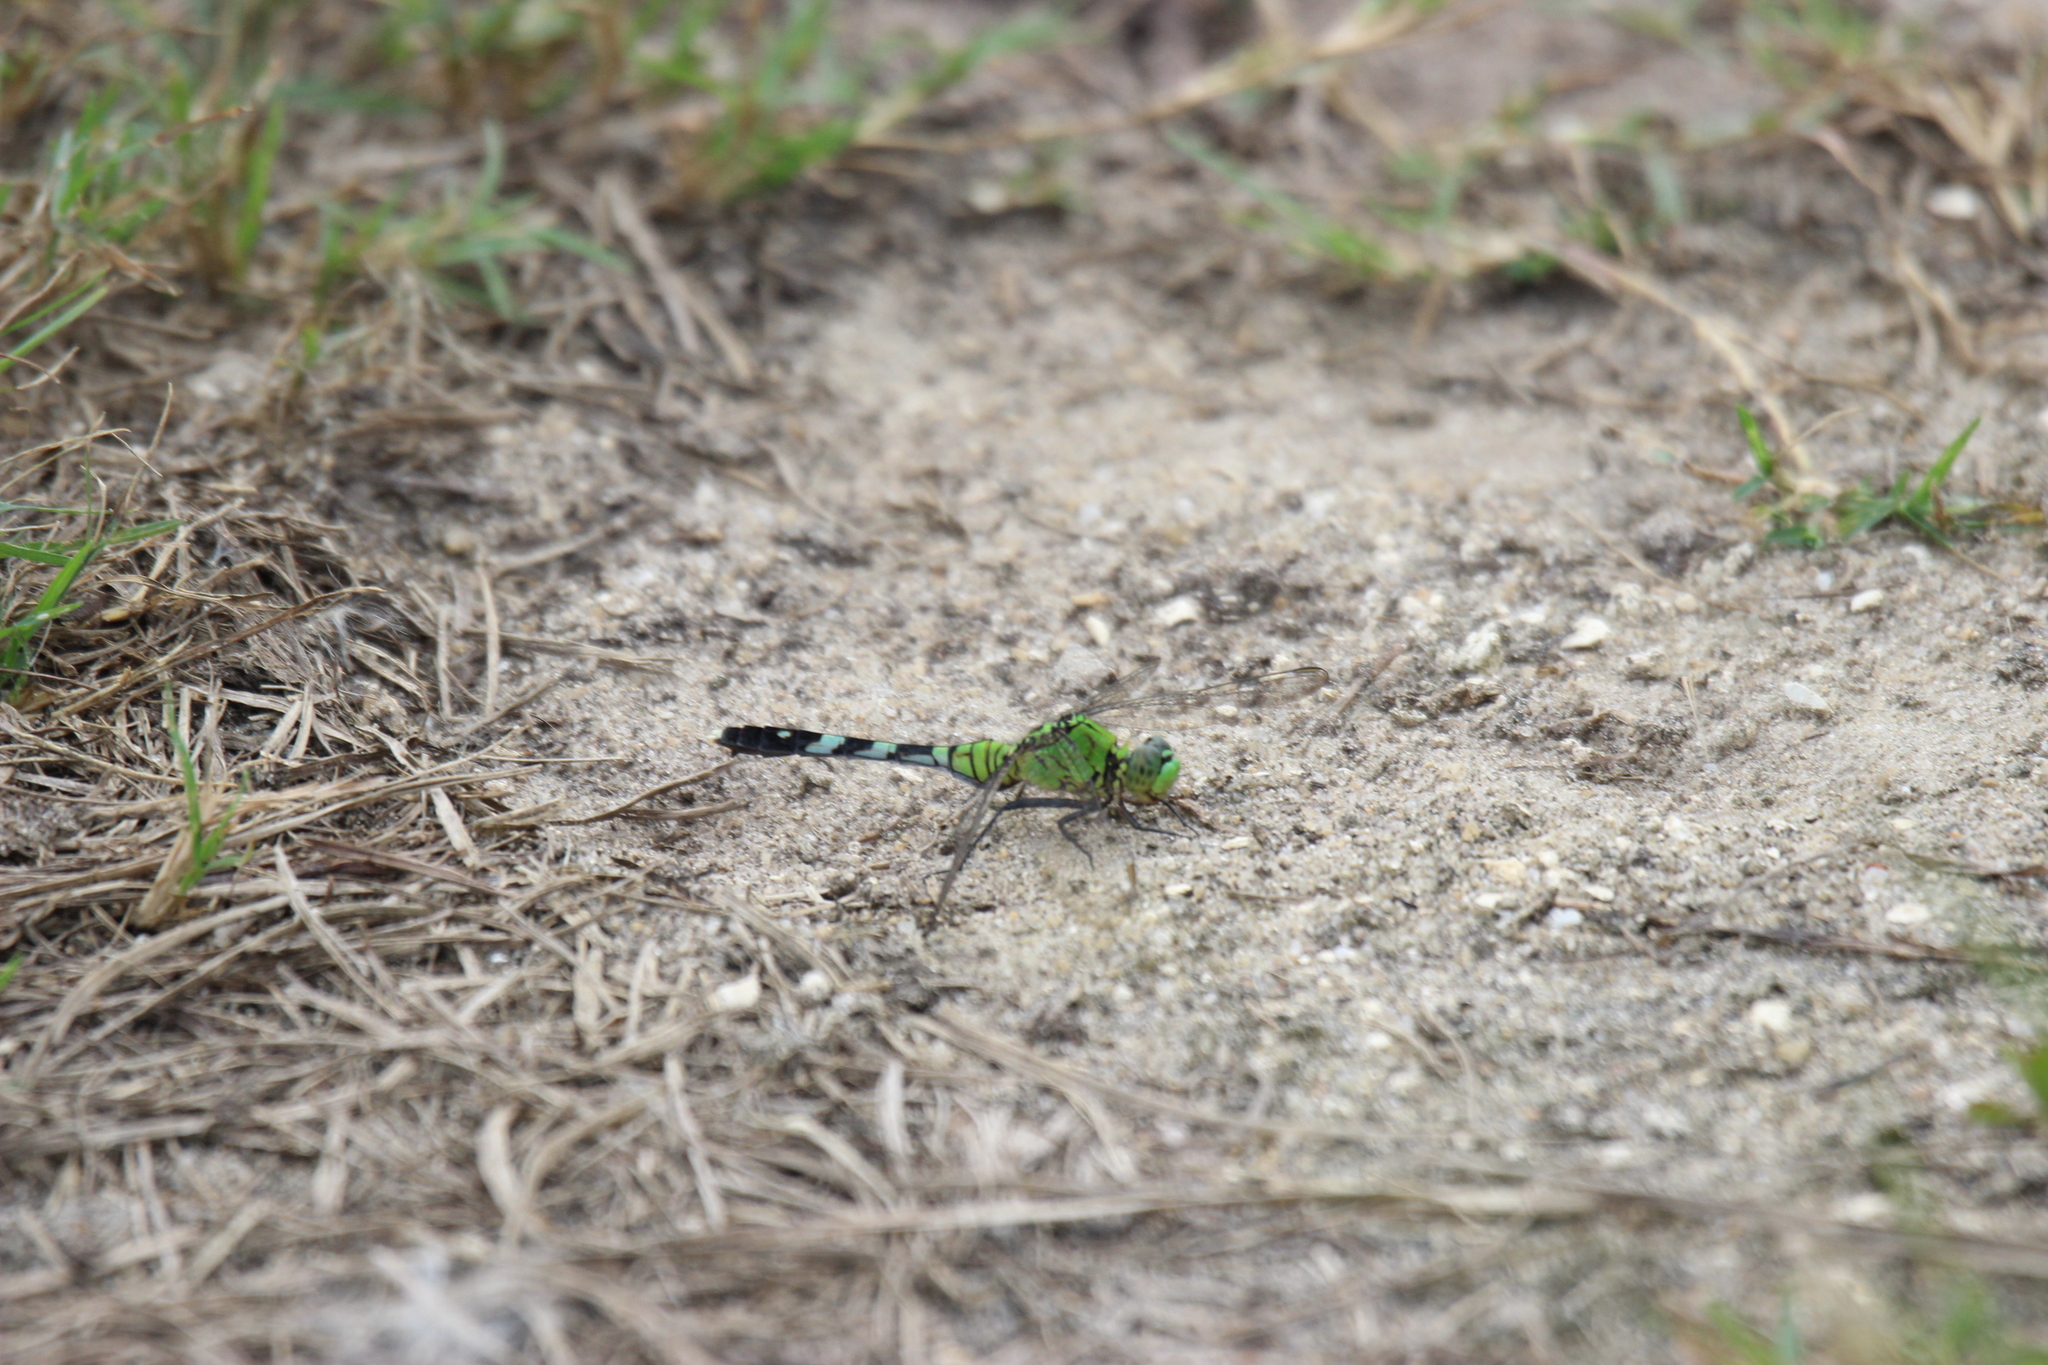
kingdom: Animalia
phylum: Arthropoda
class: Insecta
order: Odonata
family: Libellulidae
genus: Erythemis
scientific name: Erythemis simplicicollis
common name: Eastern pondhawk
